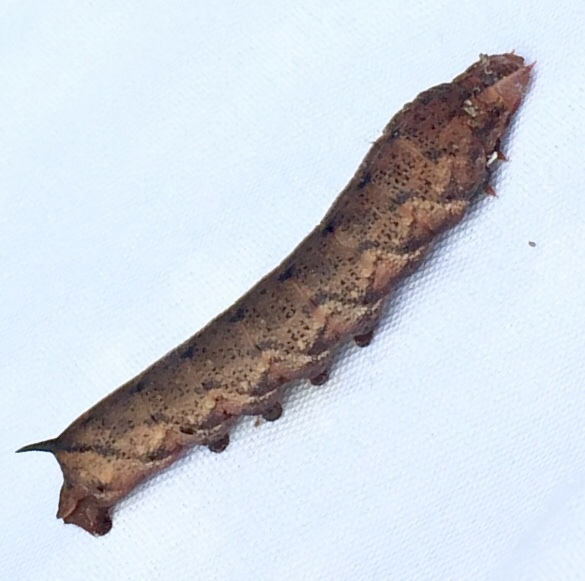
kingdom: Animalia
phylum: Arthropoda
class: Insecta
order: Lepidoptera
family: Sphingidae
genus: Amphion
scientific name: Amphion floridensis
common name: Nessus sphinx
